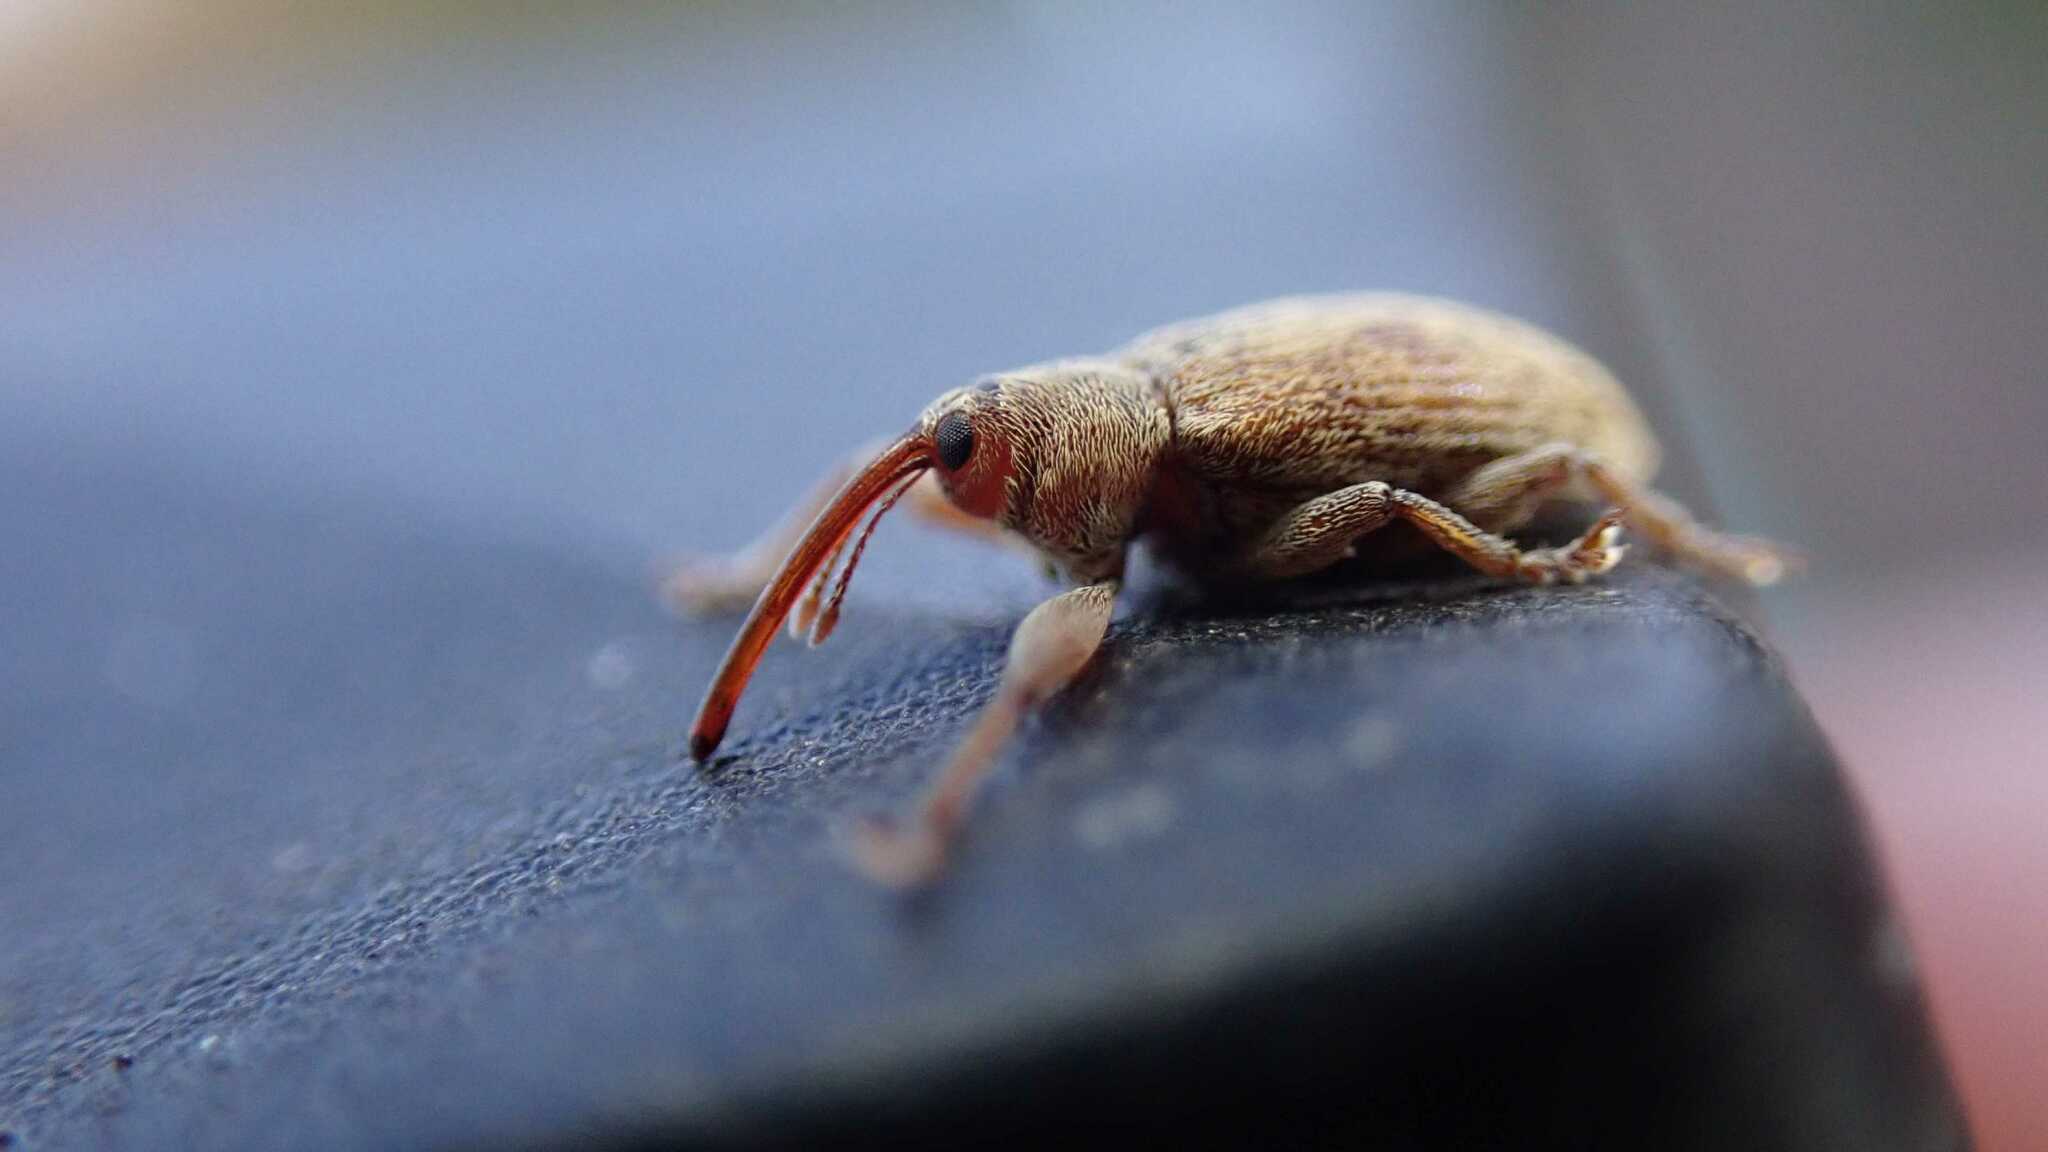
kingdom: Animalia
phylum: Arthropoda
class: Insecta
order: Coleoptera
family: Brachyceridae
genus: Erirhinus
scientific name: Erirhinus filirostris
